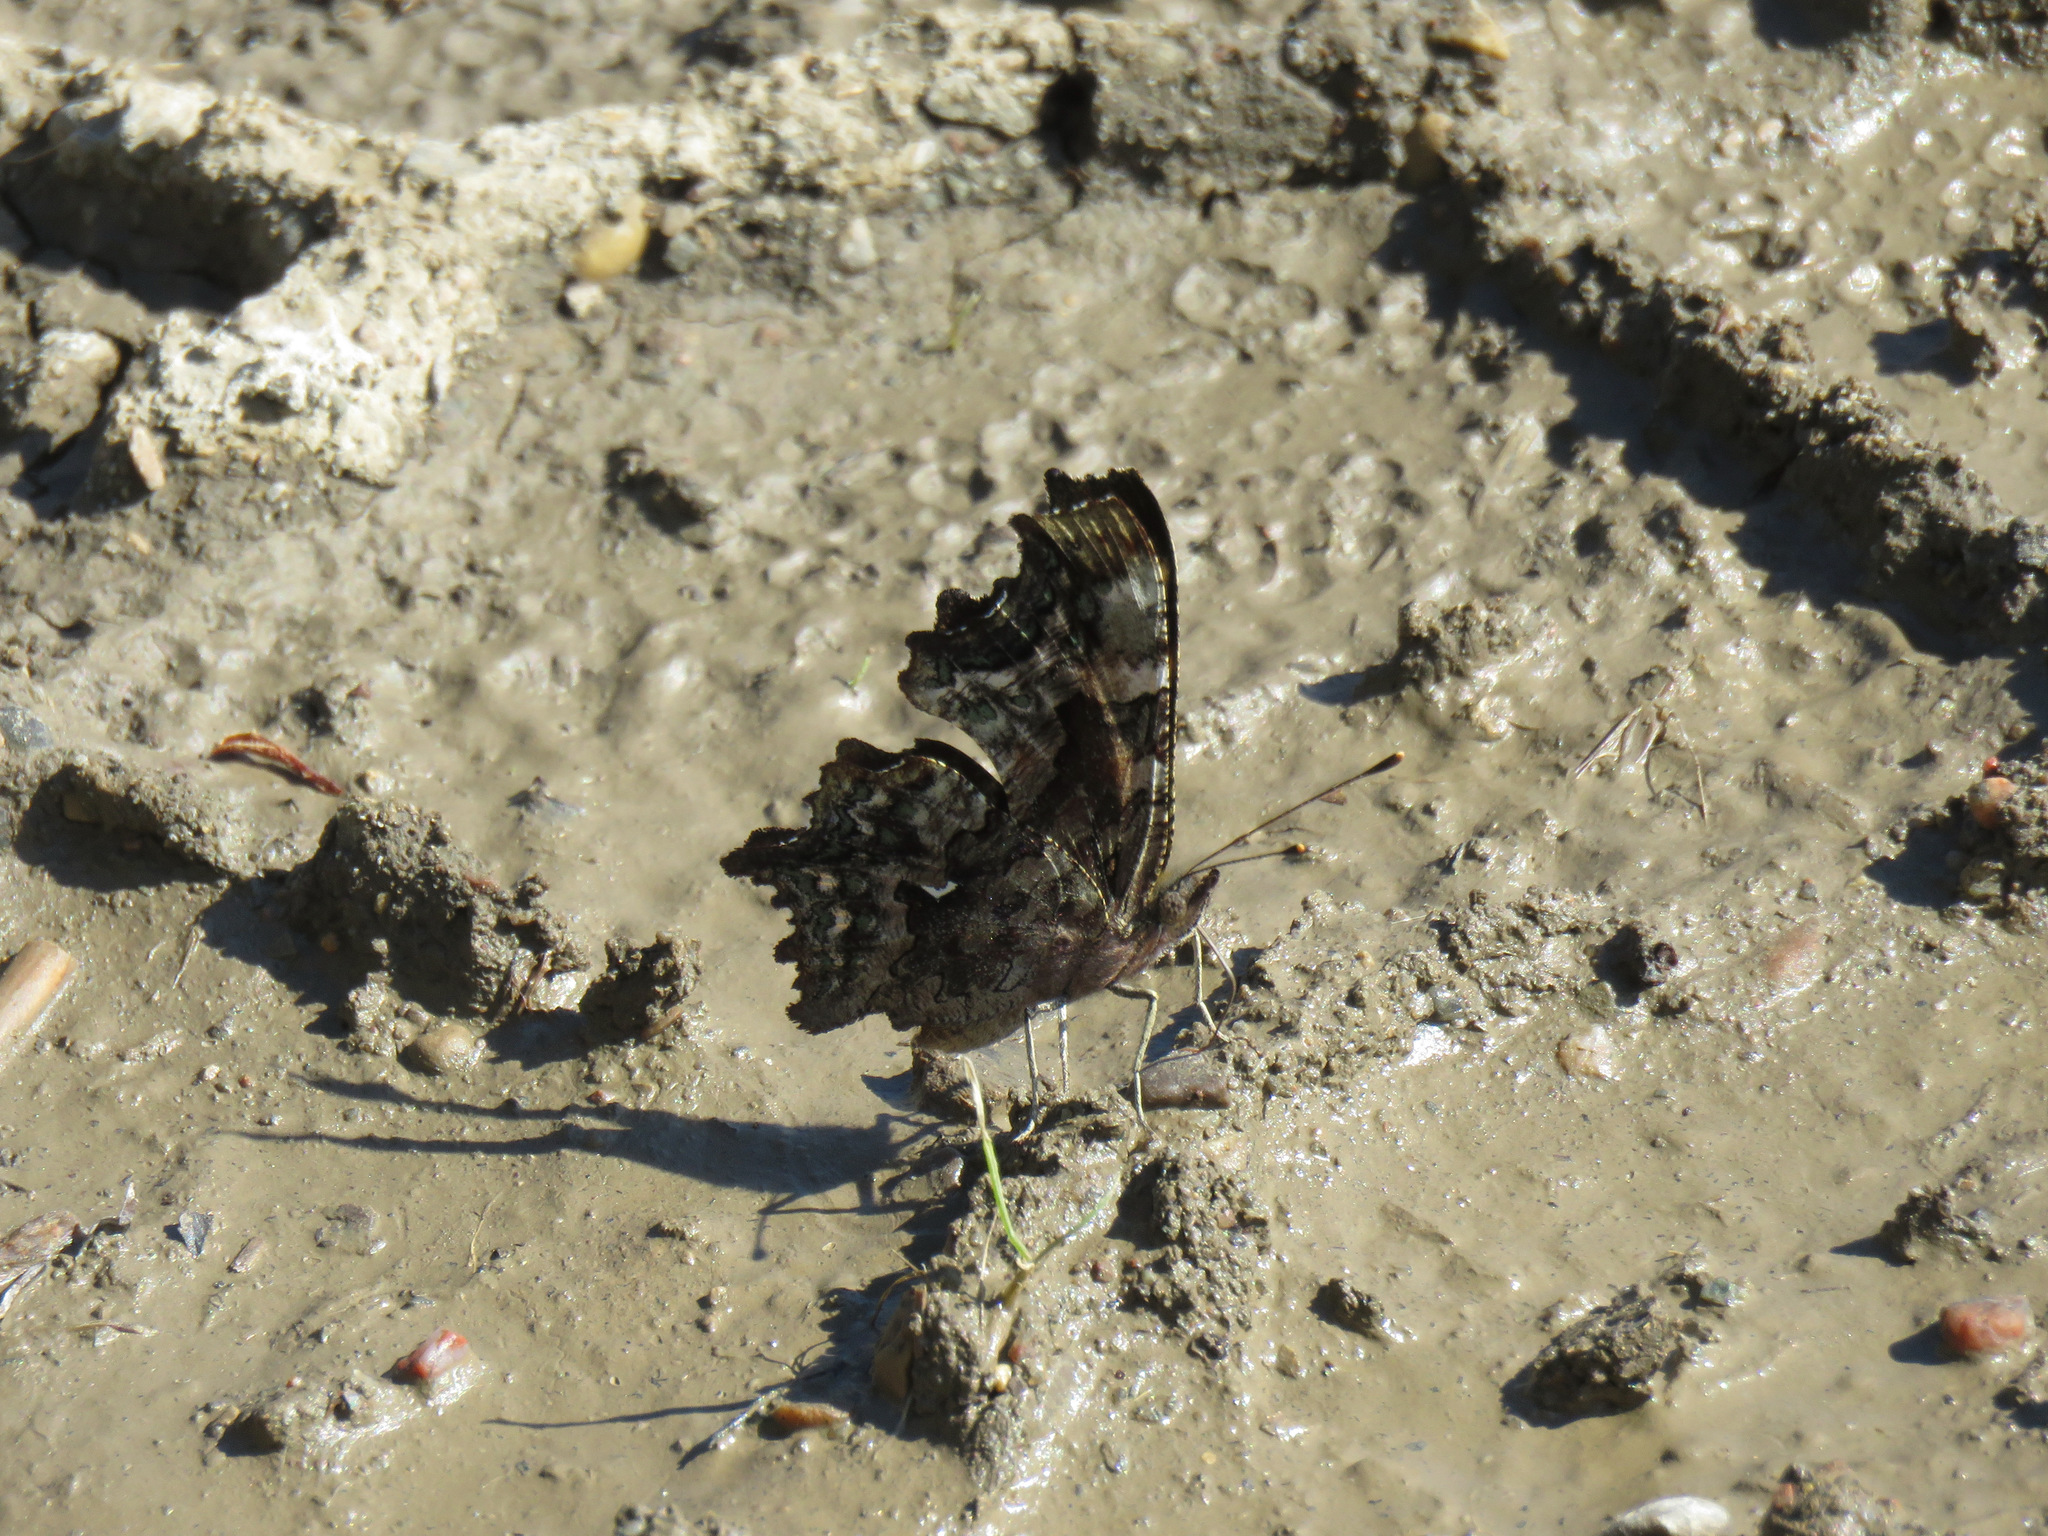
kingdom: Animalia
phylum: Arthropoda
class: Insecta
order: Lepidoptera
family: Nymphalidae
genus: Polygonia
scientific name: Polygonia faunus
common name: Green comma
